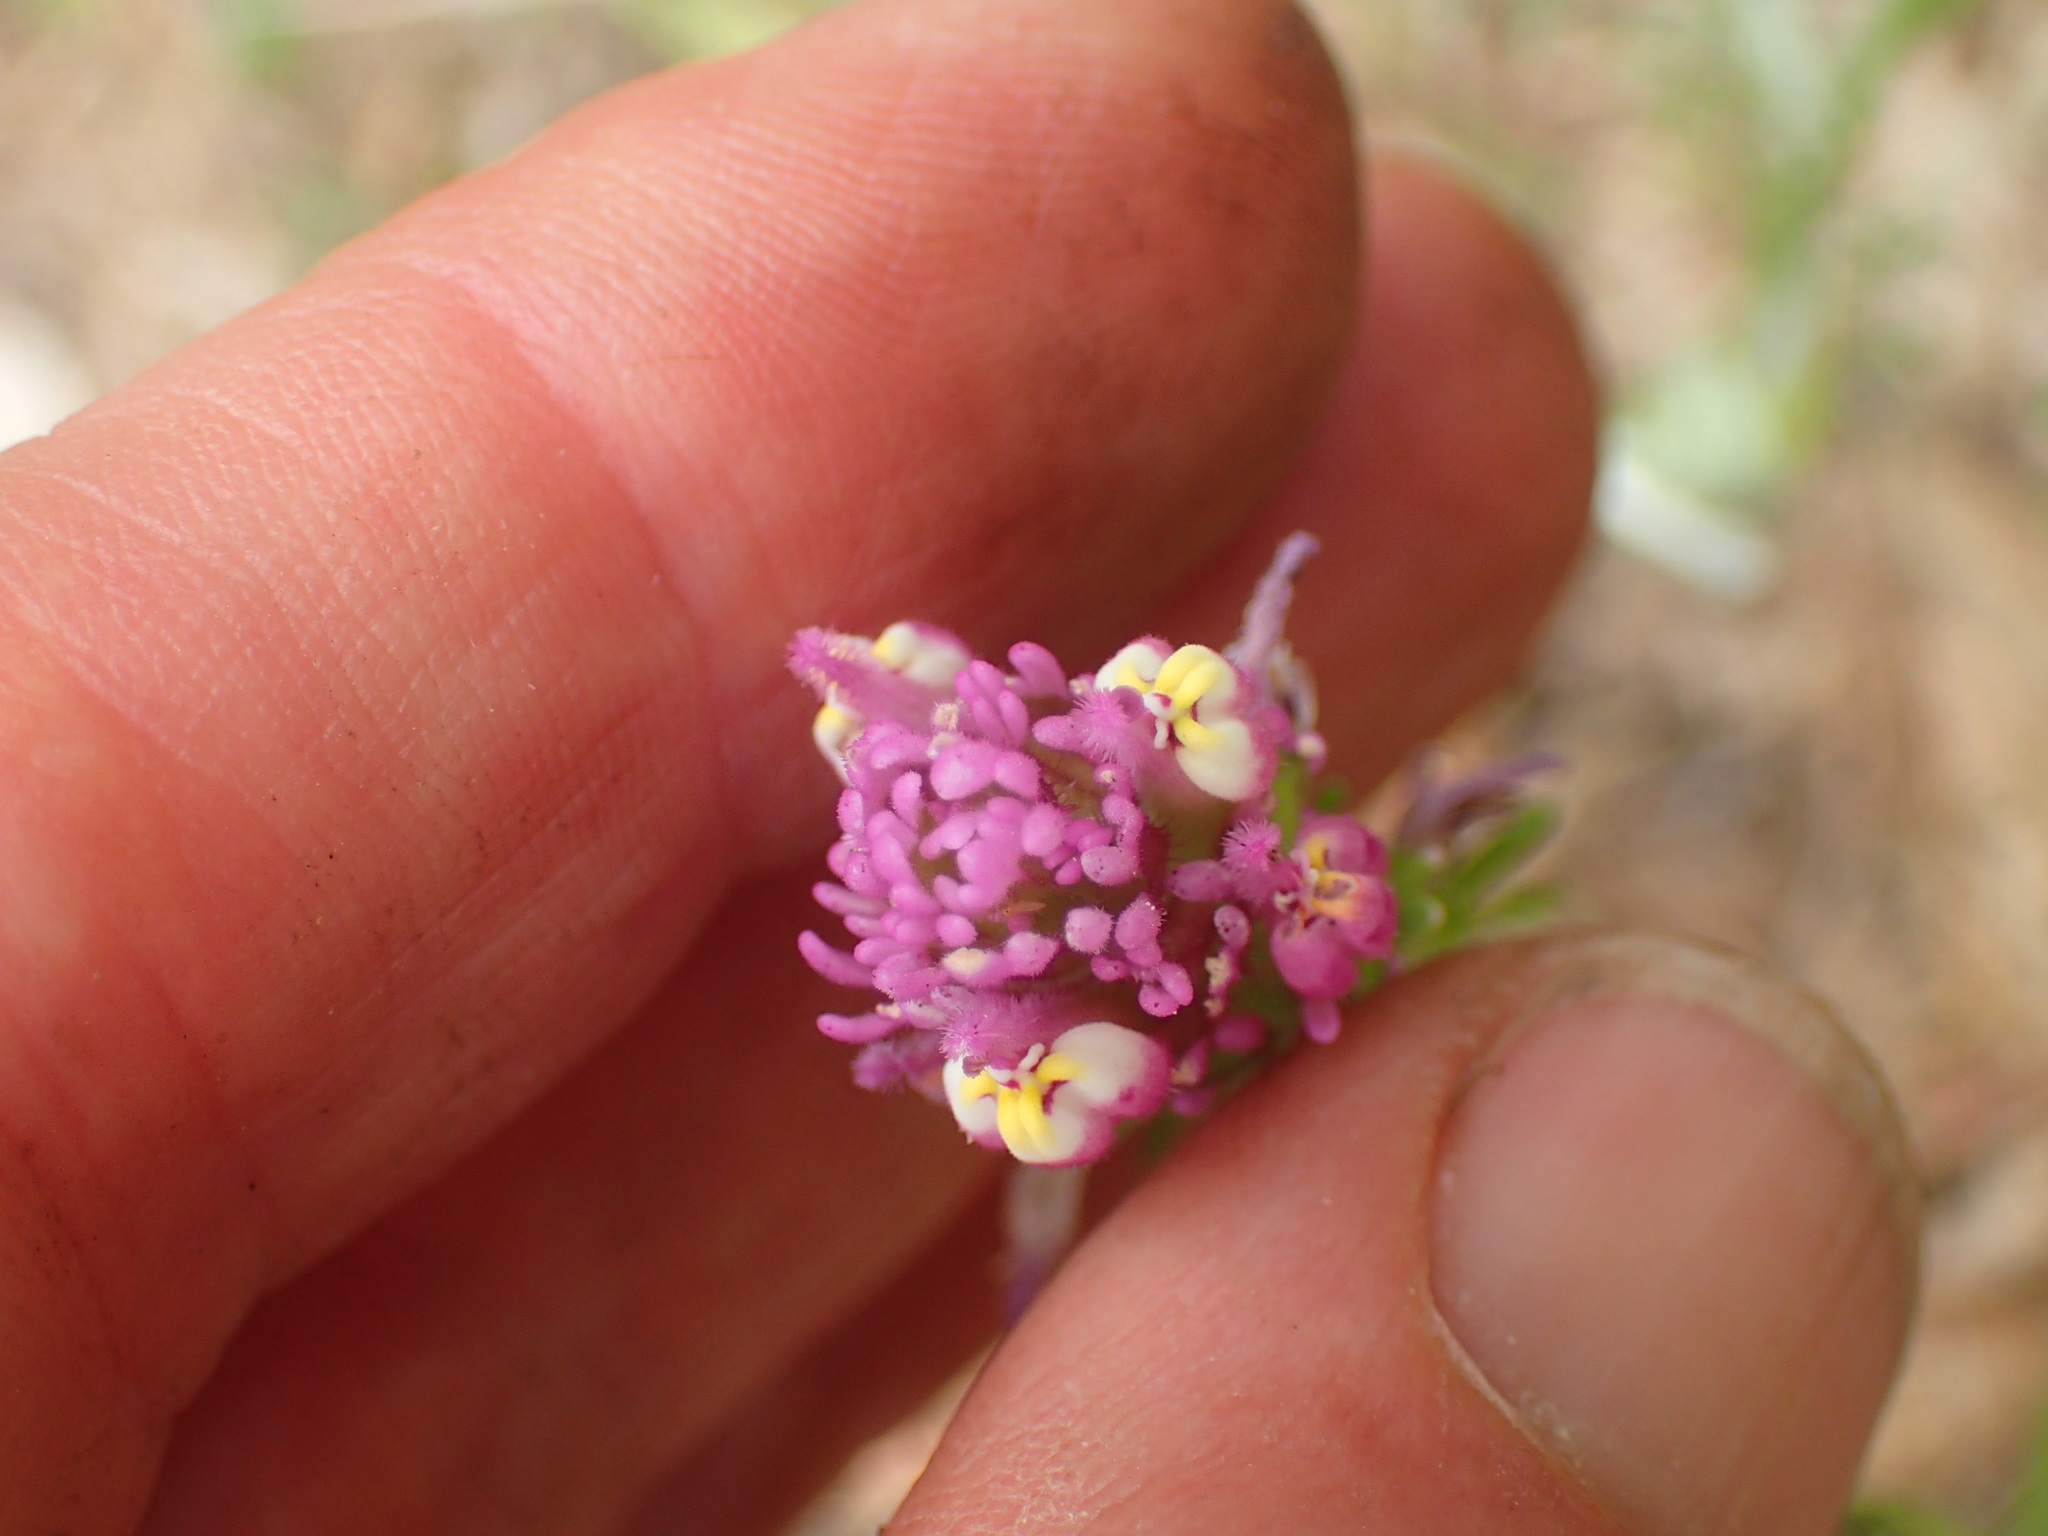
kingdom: Plantae
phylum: Tracheophyta
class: Magnoliopsida
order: Lamiales
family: Orobanchaceae
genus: Castilleja
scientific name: Castilleja exserta
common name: Purple owl-clover
